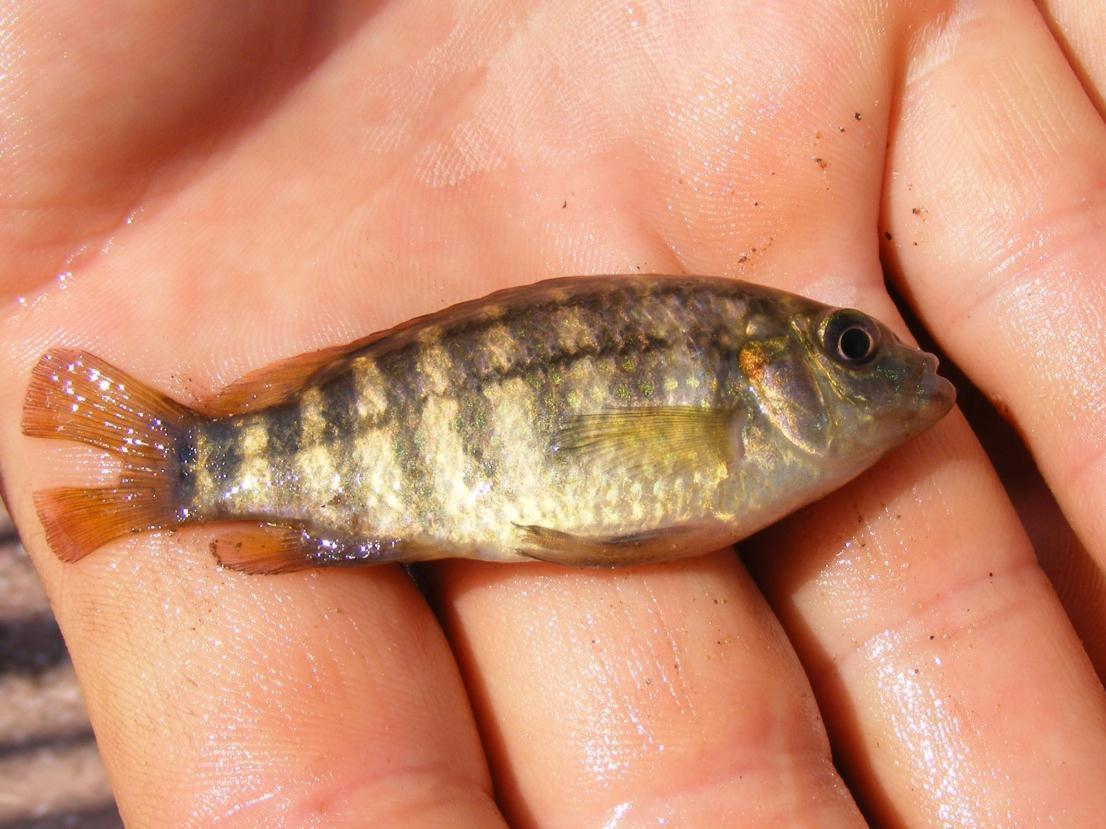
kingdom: Animalia
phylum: Chordata
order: Perciformes
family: Cichlidae
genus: Tilapia
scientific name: Tilapia sparrmanii
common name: Banded tilapia
